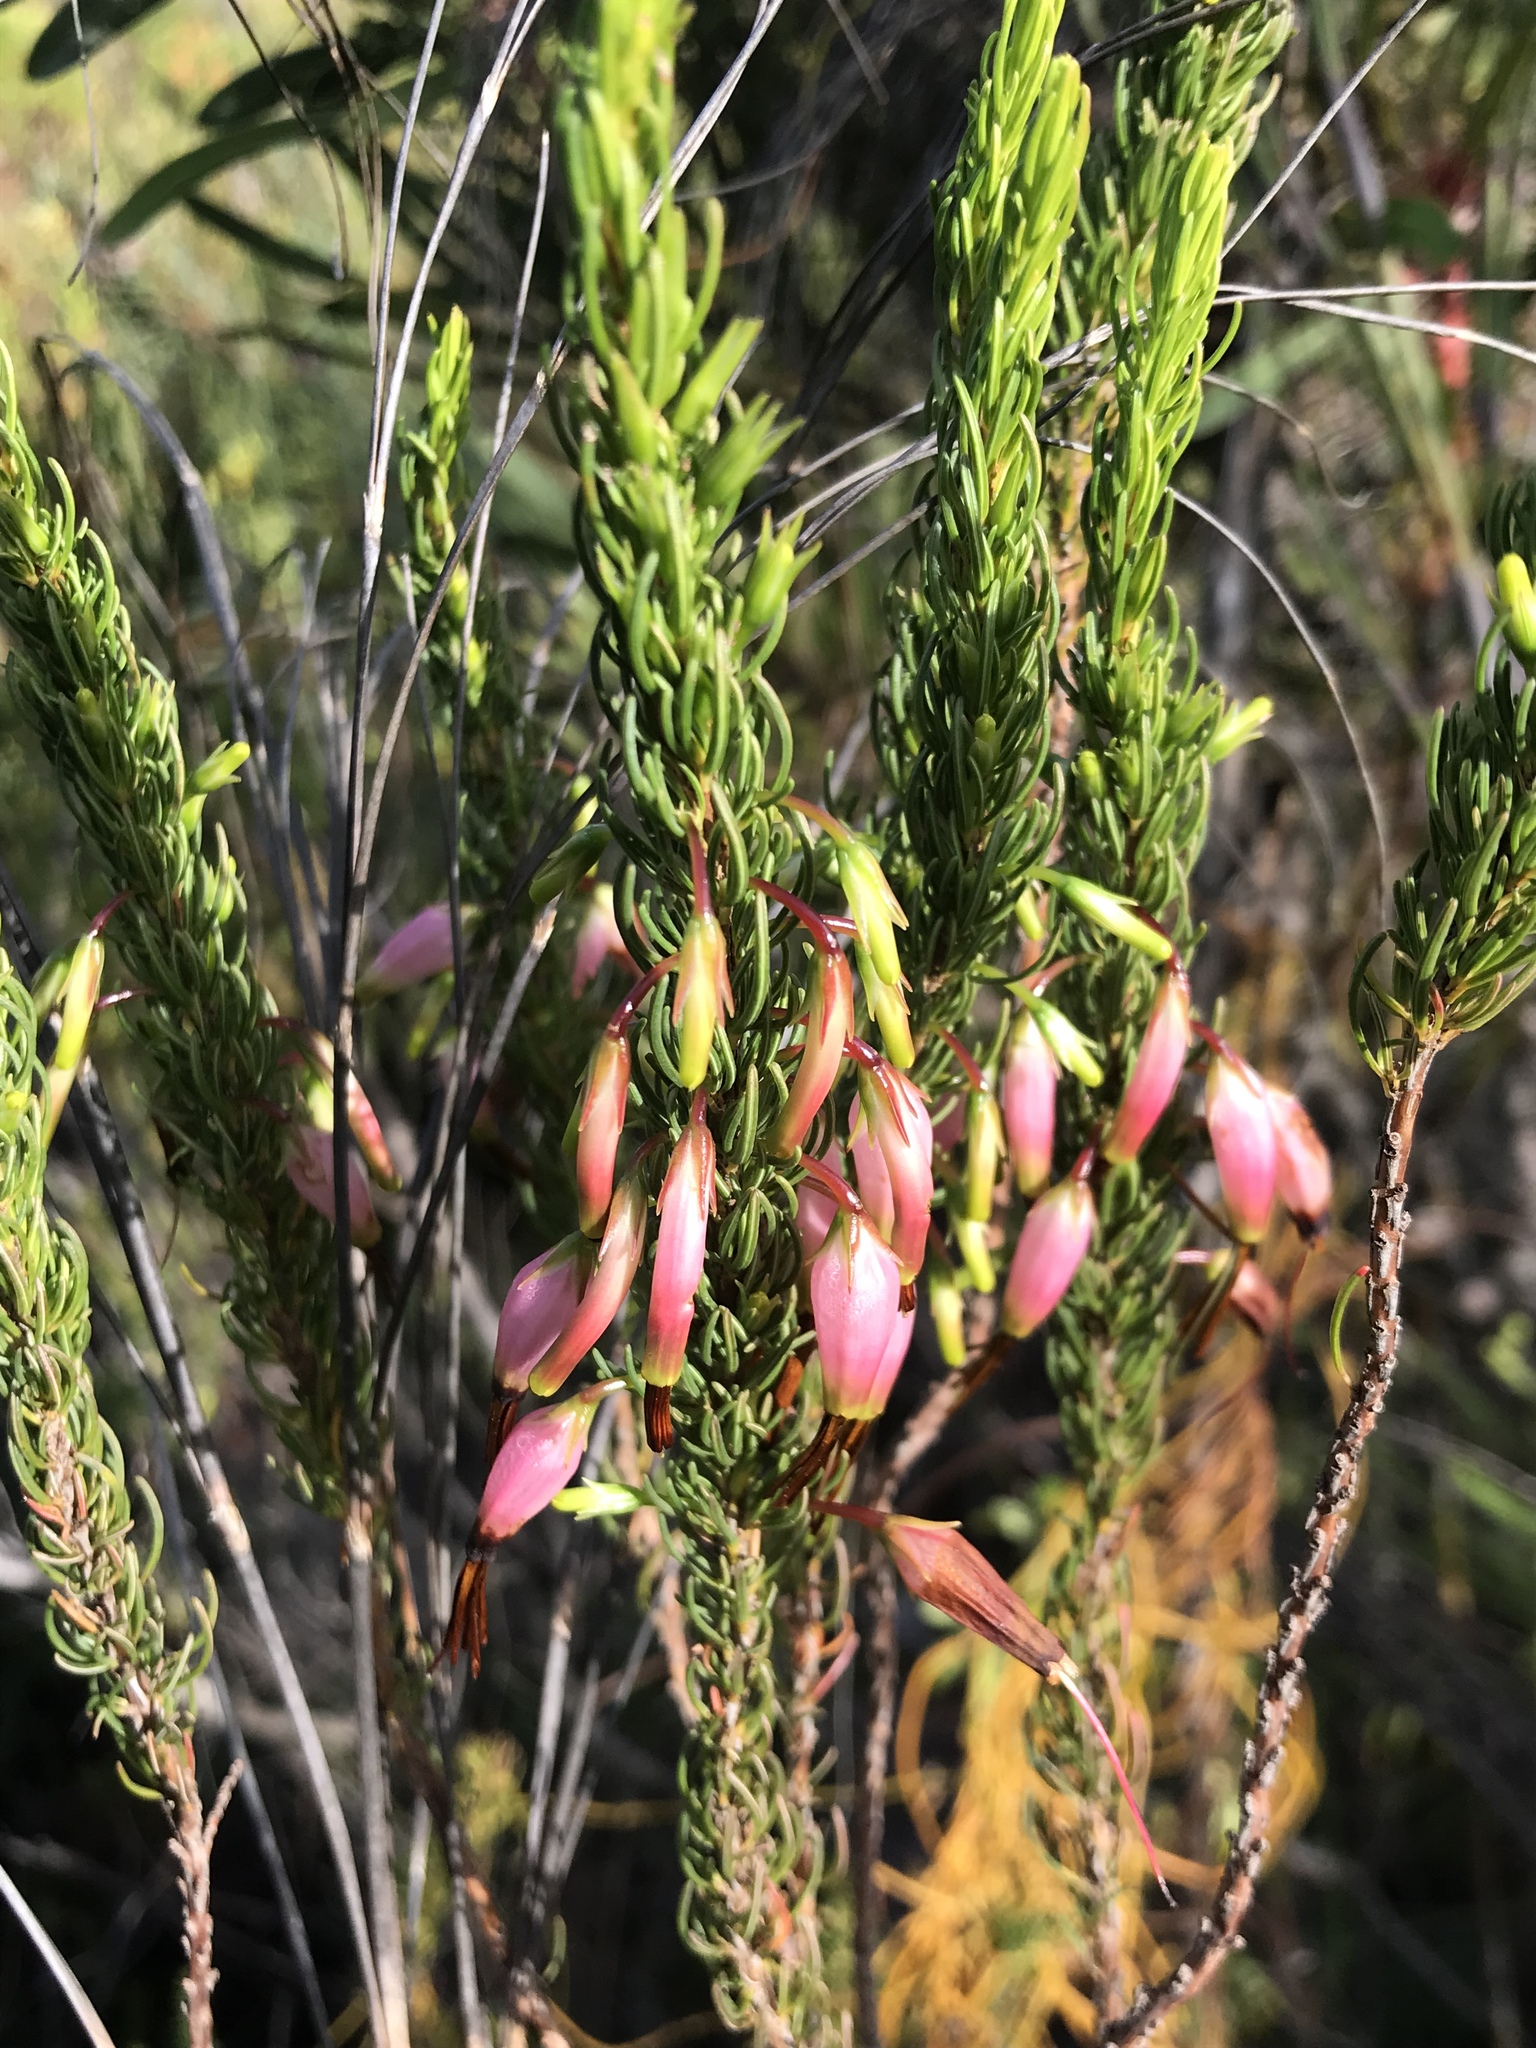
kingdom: Plantae
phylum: Tracheophyta
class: Magnoliopsida
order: Ericales
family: Ericaceae
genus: Erica
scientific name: Erica plukenetii
